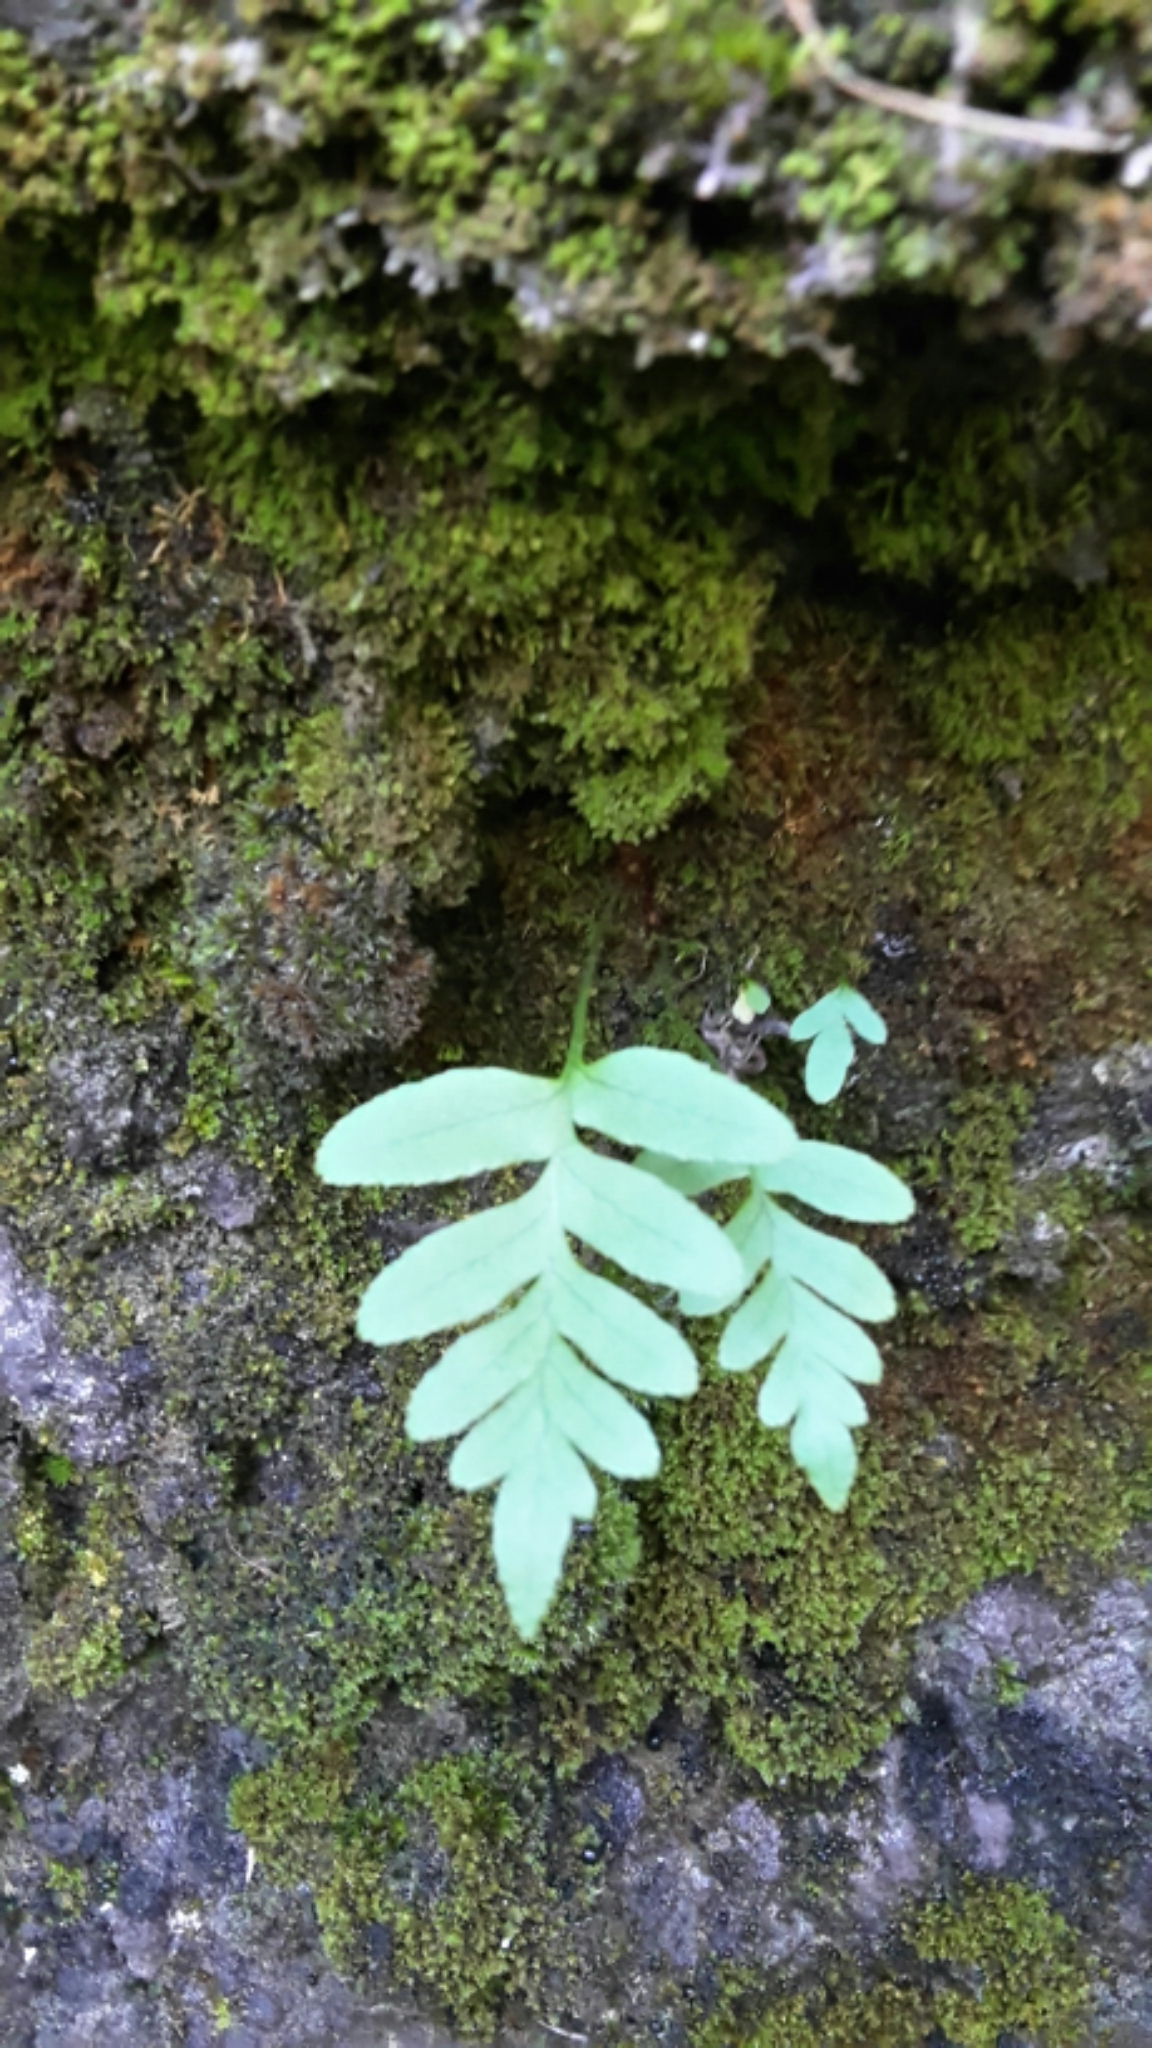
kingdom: Plantae
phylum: Tracheophyta
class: Polypodiopsida
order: Polypodiales
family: Polypodiaceae
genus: Polypodium
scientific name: Polypodium vulgare
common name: Common polypody
